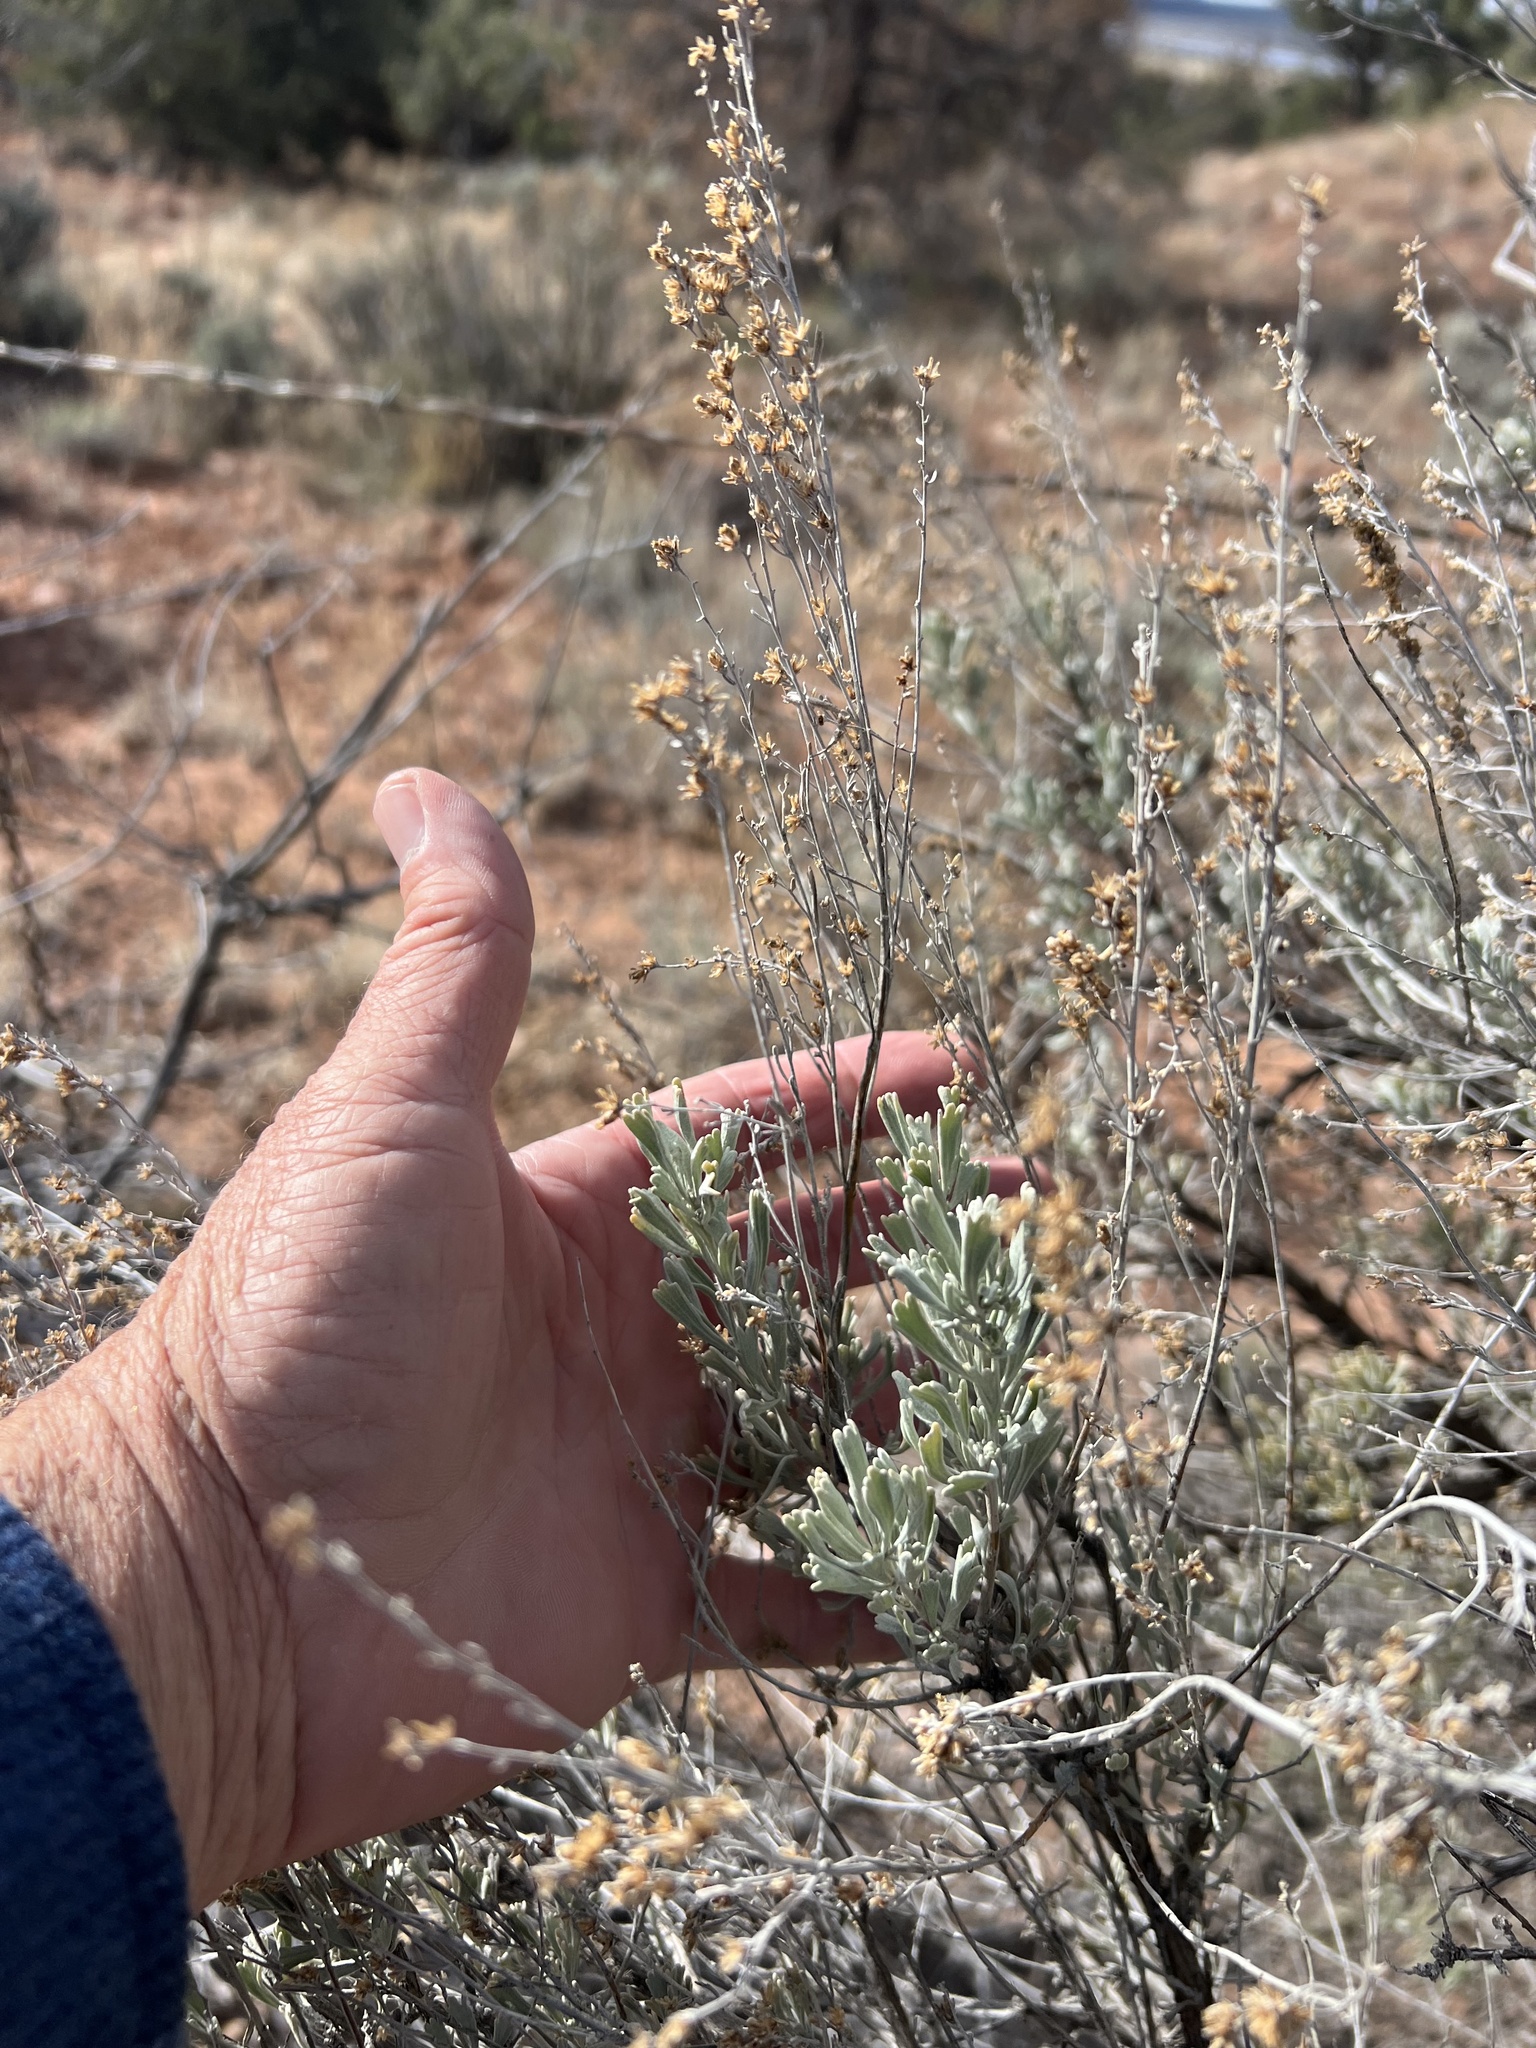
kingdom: Plantae
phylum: Tracheophyta
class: Magnoliopsida
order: Asterales
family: Asteraceae
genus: Artemisia
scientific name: Artemisia tridentata
